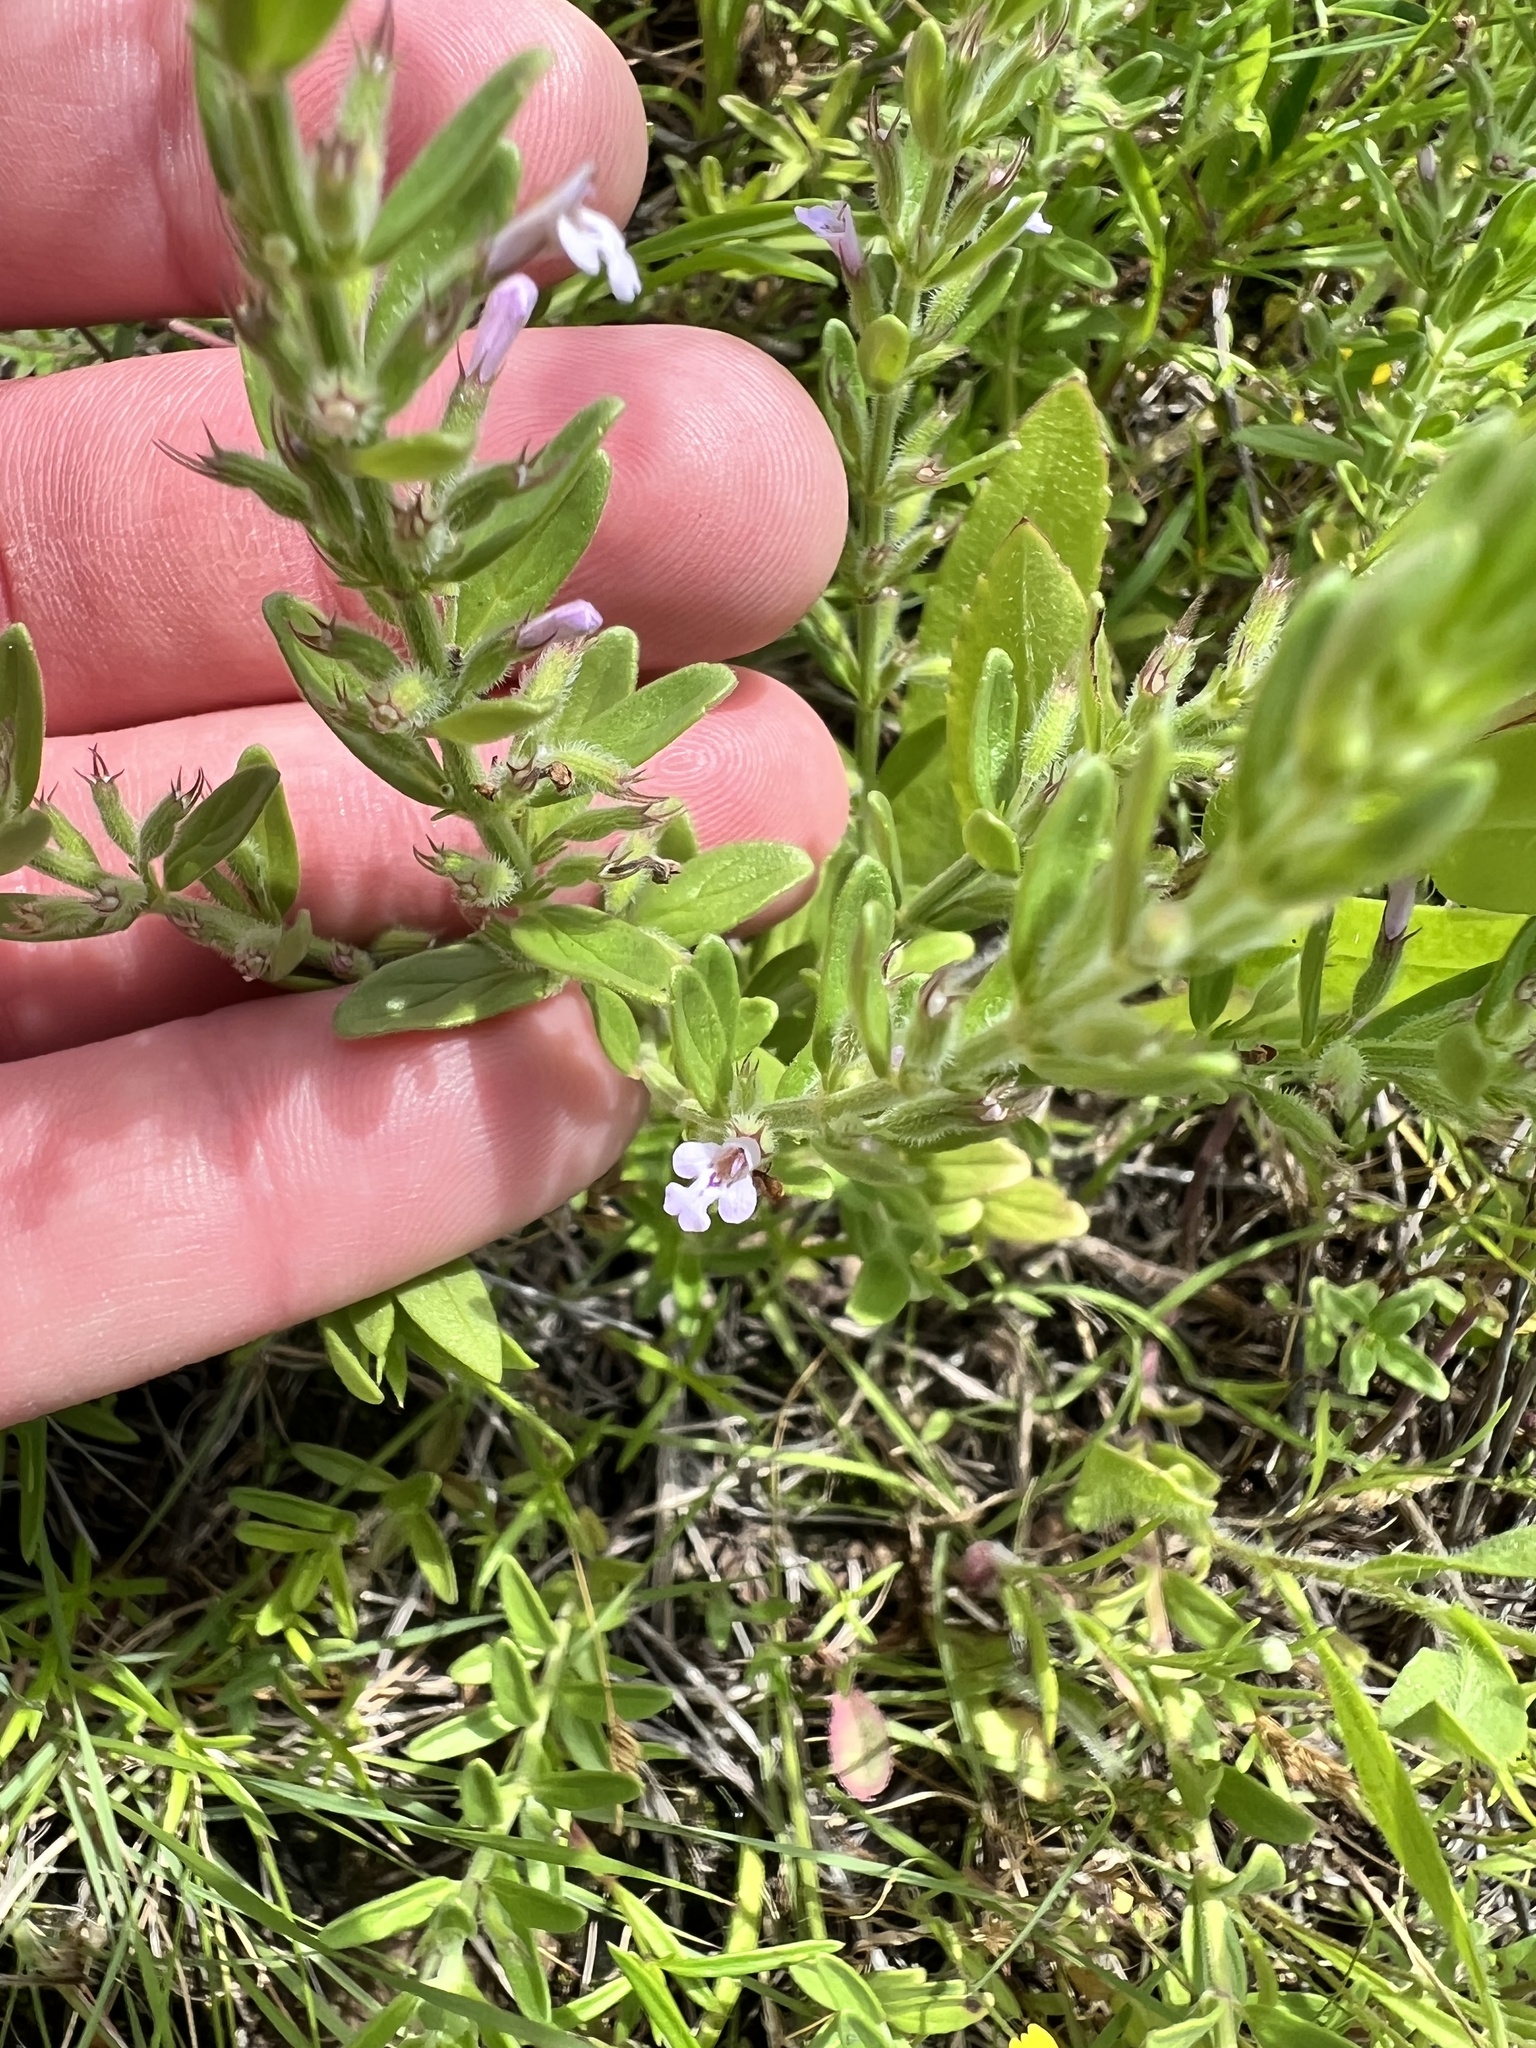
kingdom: Plantae
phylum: Tracheophyta
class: Magnoliopsida
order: Lamiales
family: Lamiaceae
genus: Hedeoma
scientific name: Hedeoma reverchonii
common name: Reverchon's false penny-royal
